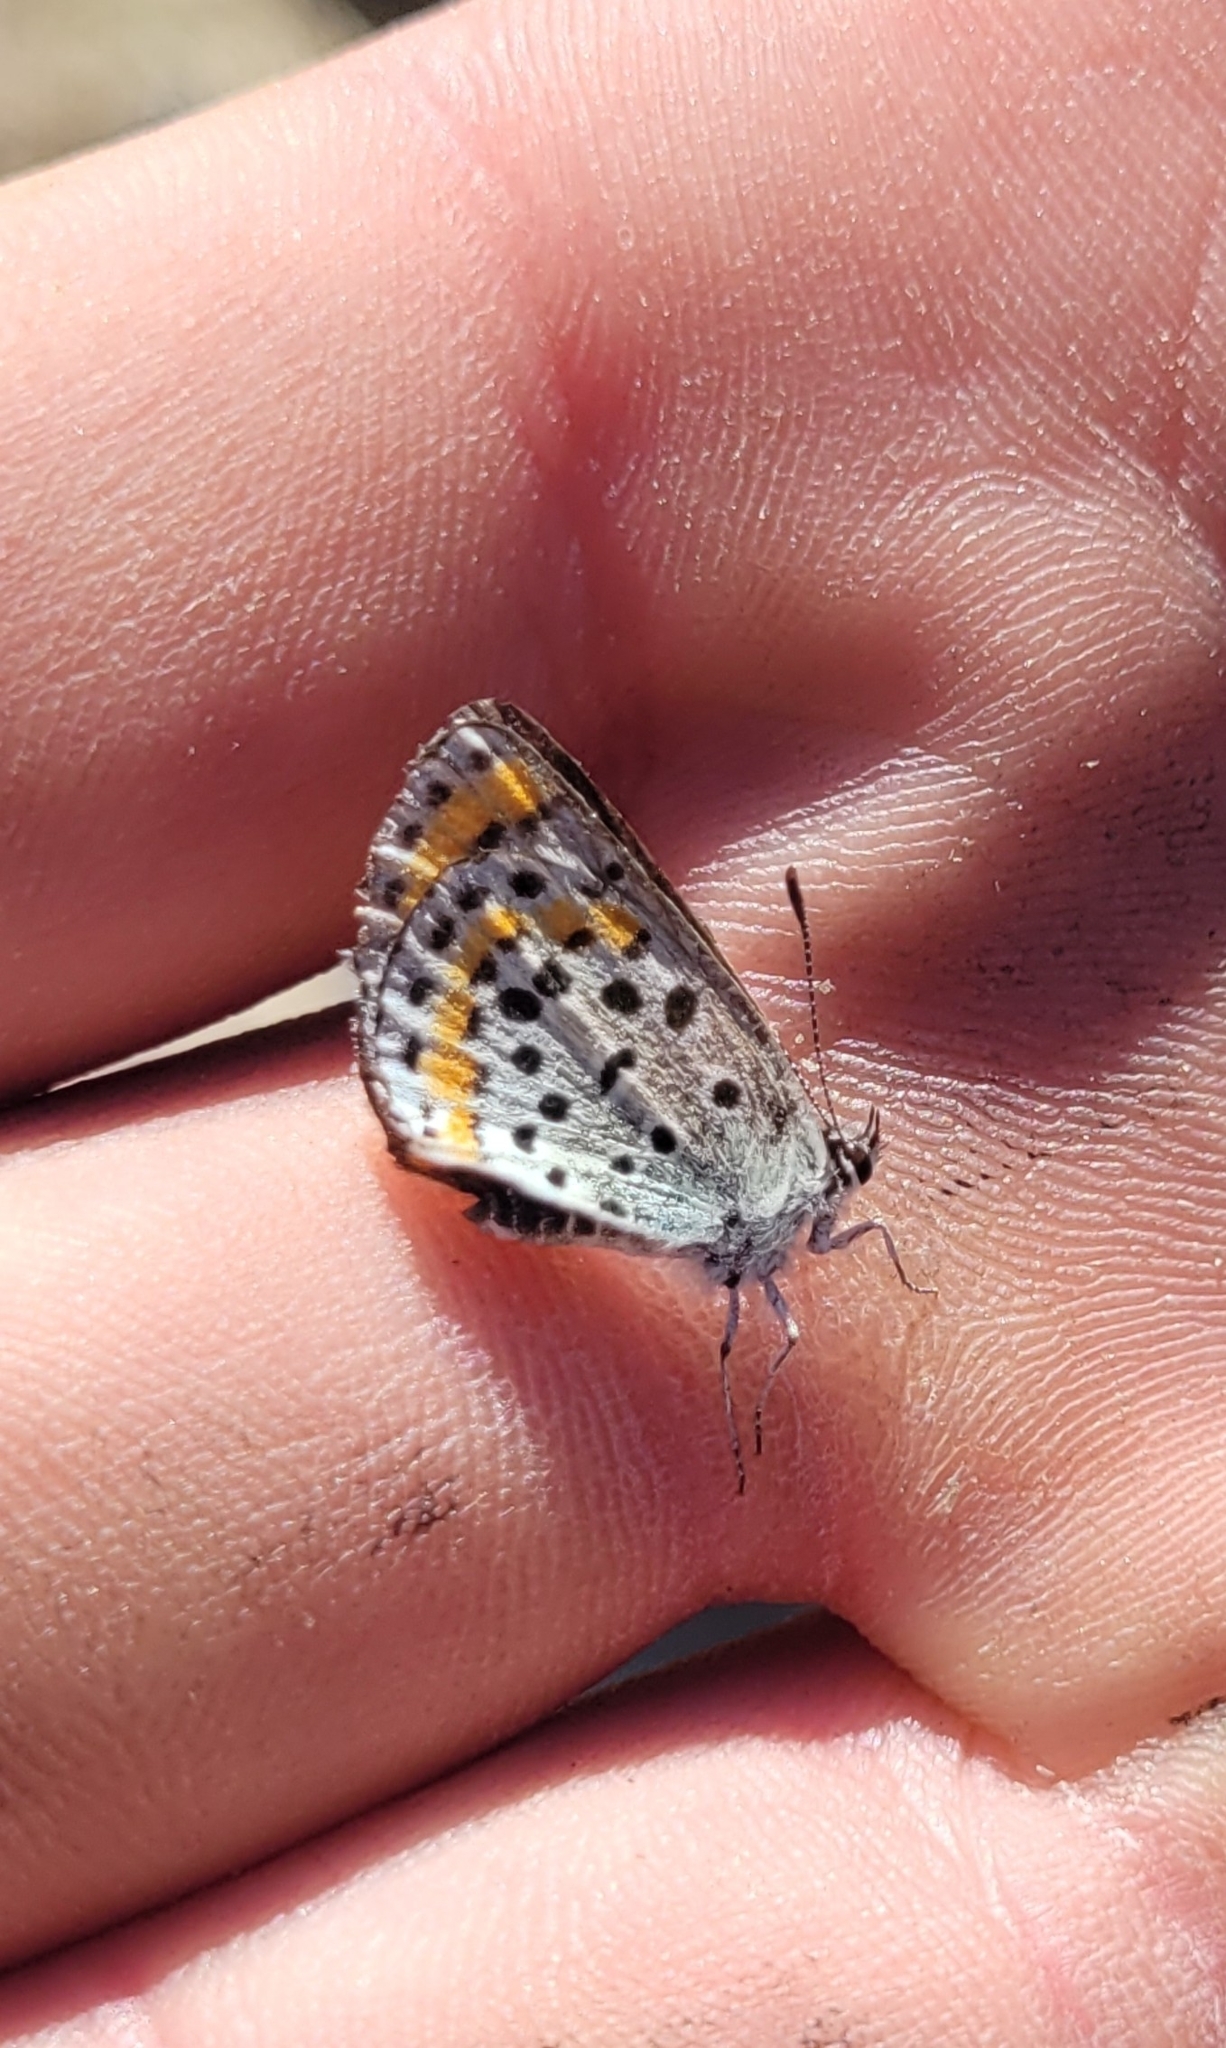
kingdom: Animalia
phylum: Arthropoda
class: Insecta
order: Lepidoptera
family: Lycaenidae
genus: Aricia
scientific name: Aricia chinensis
